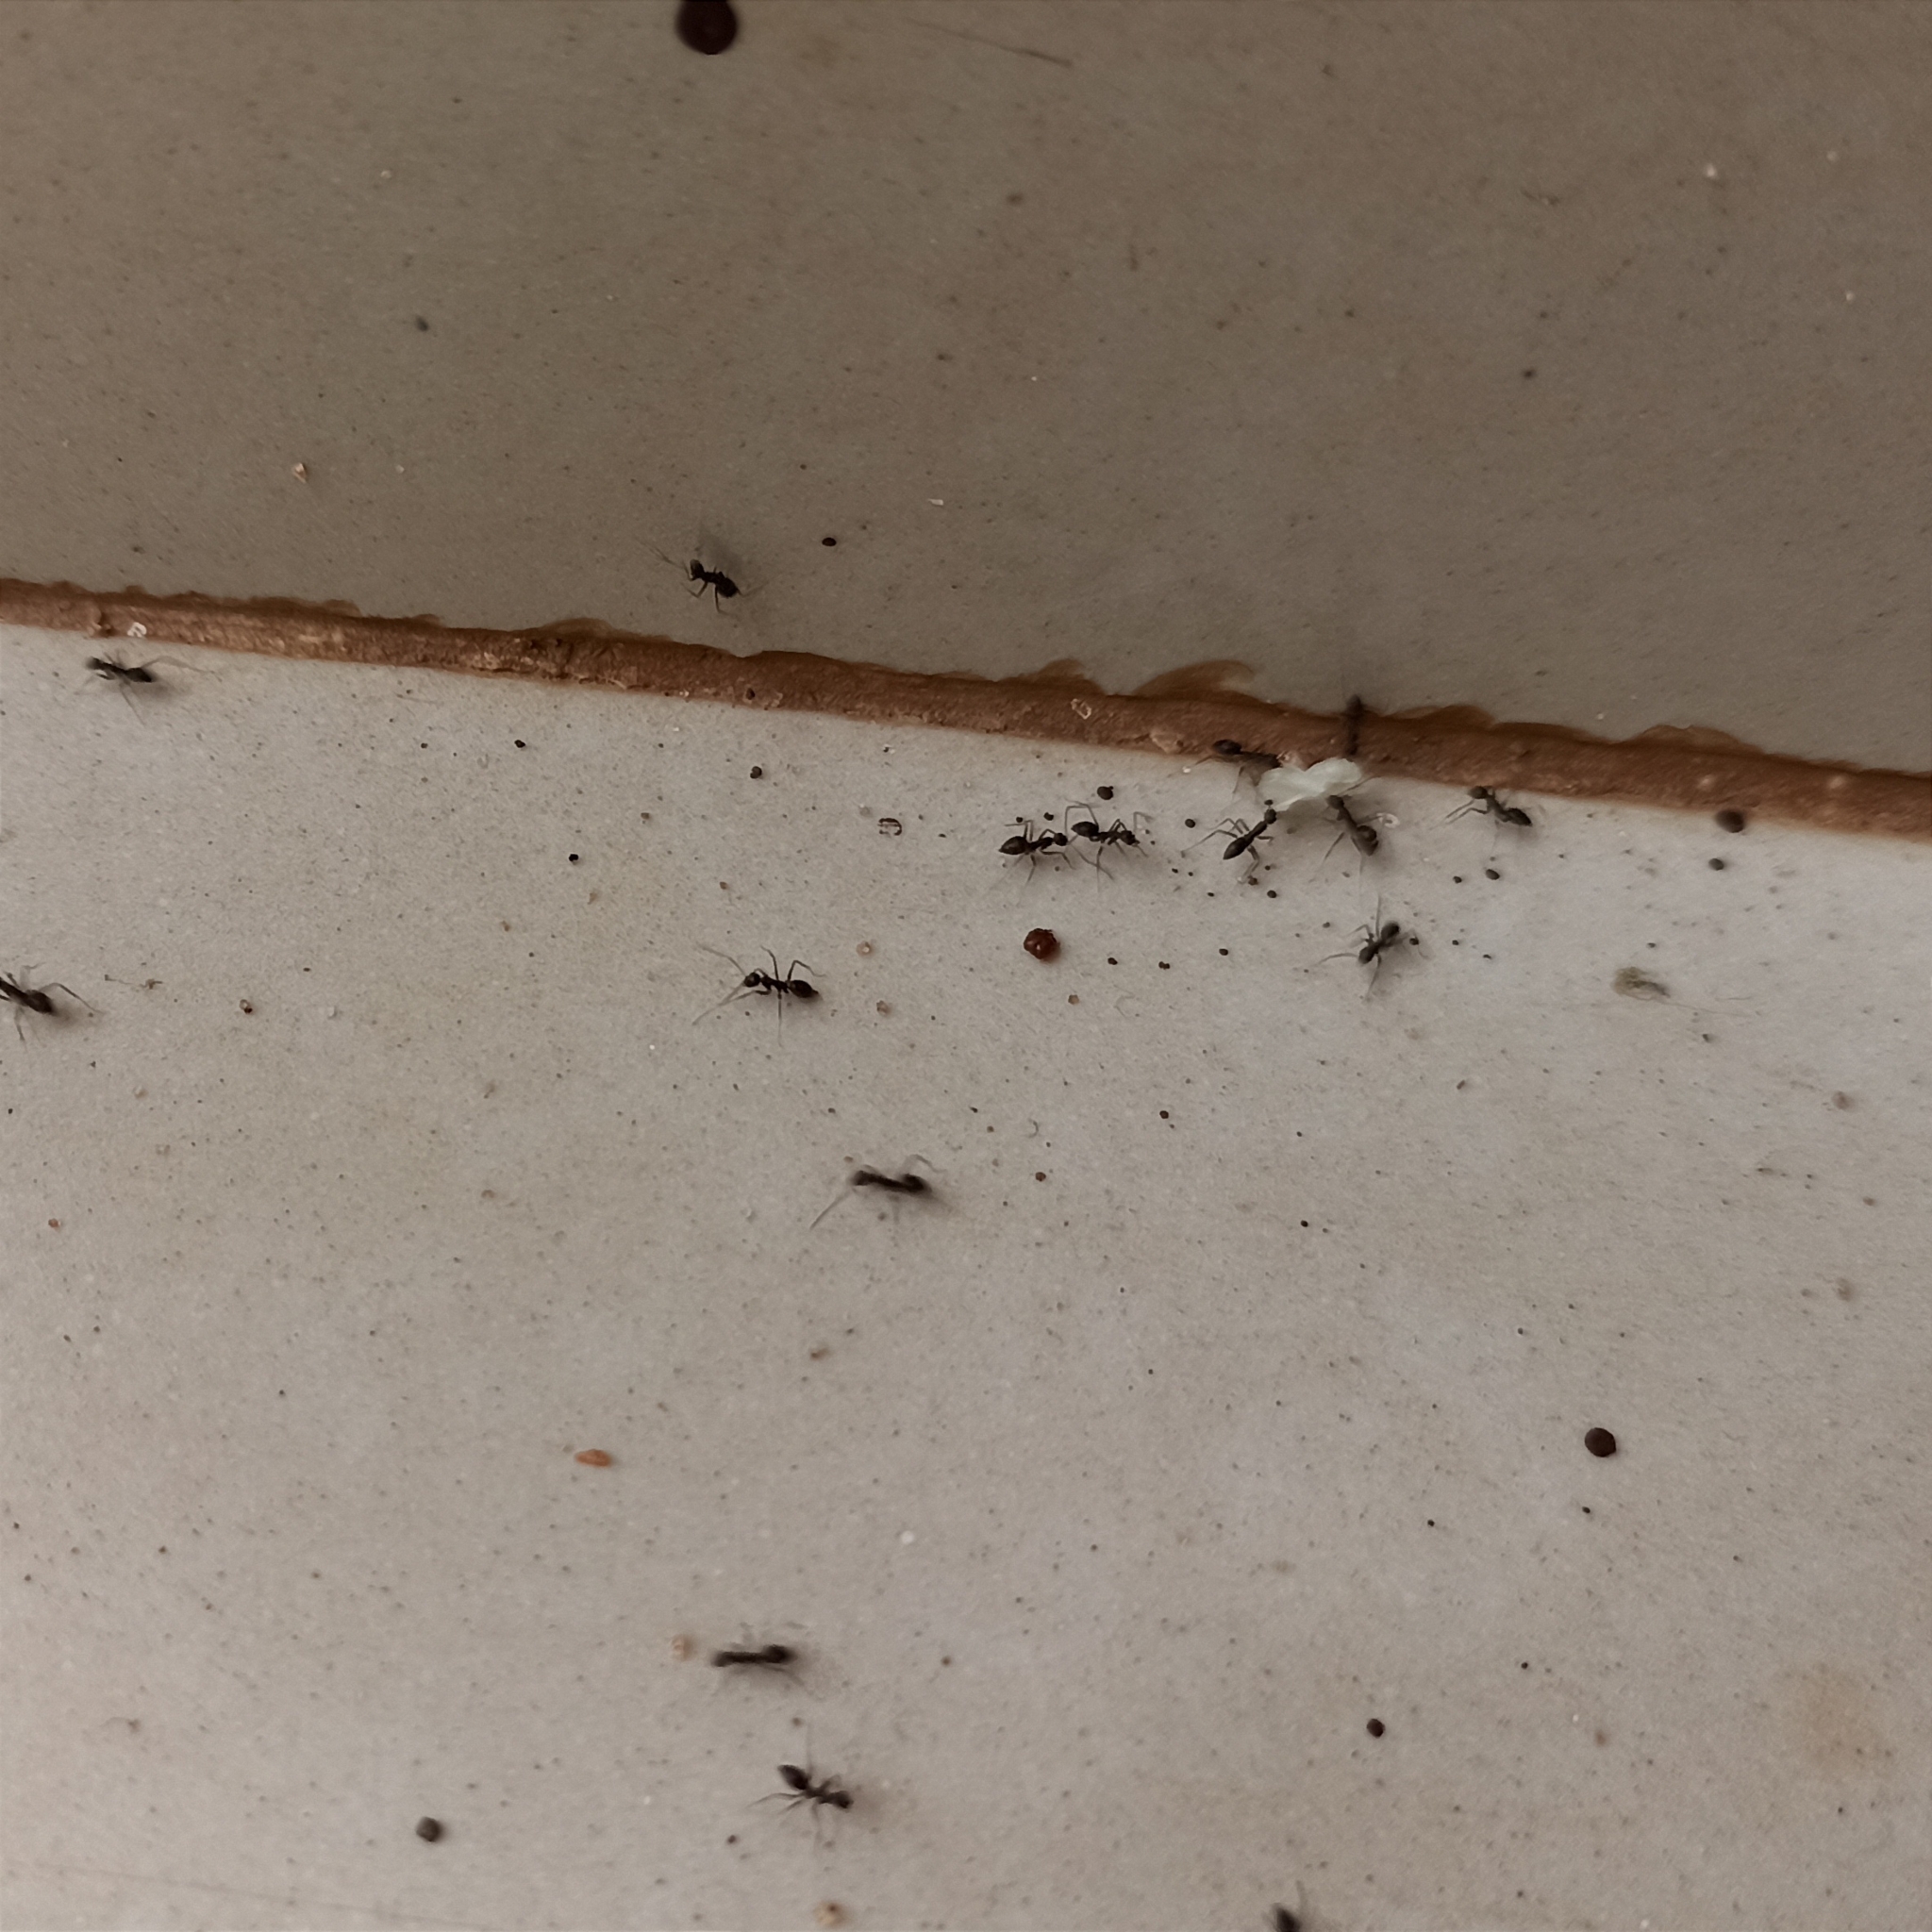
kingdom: Animalia
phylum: Arthropoda
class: Insecta
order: Hymenoptera
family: Formicidae
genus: Paratrechina
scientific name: Paratrechina longicornis
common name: Longhorned crazy ant
